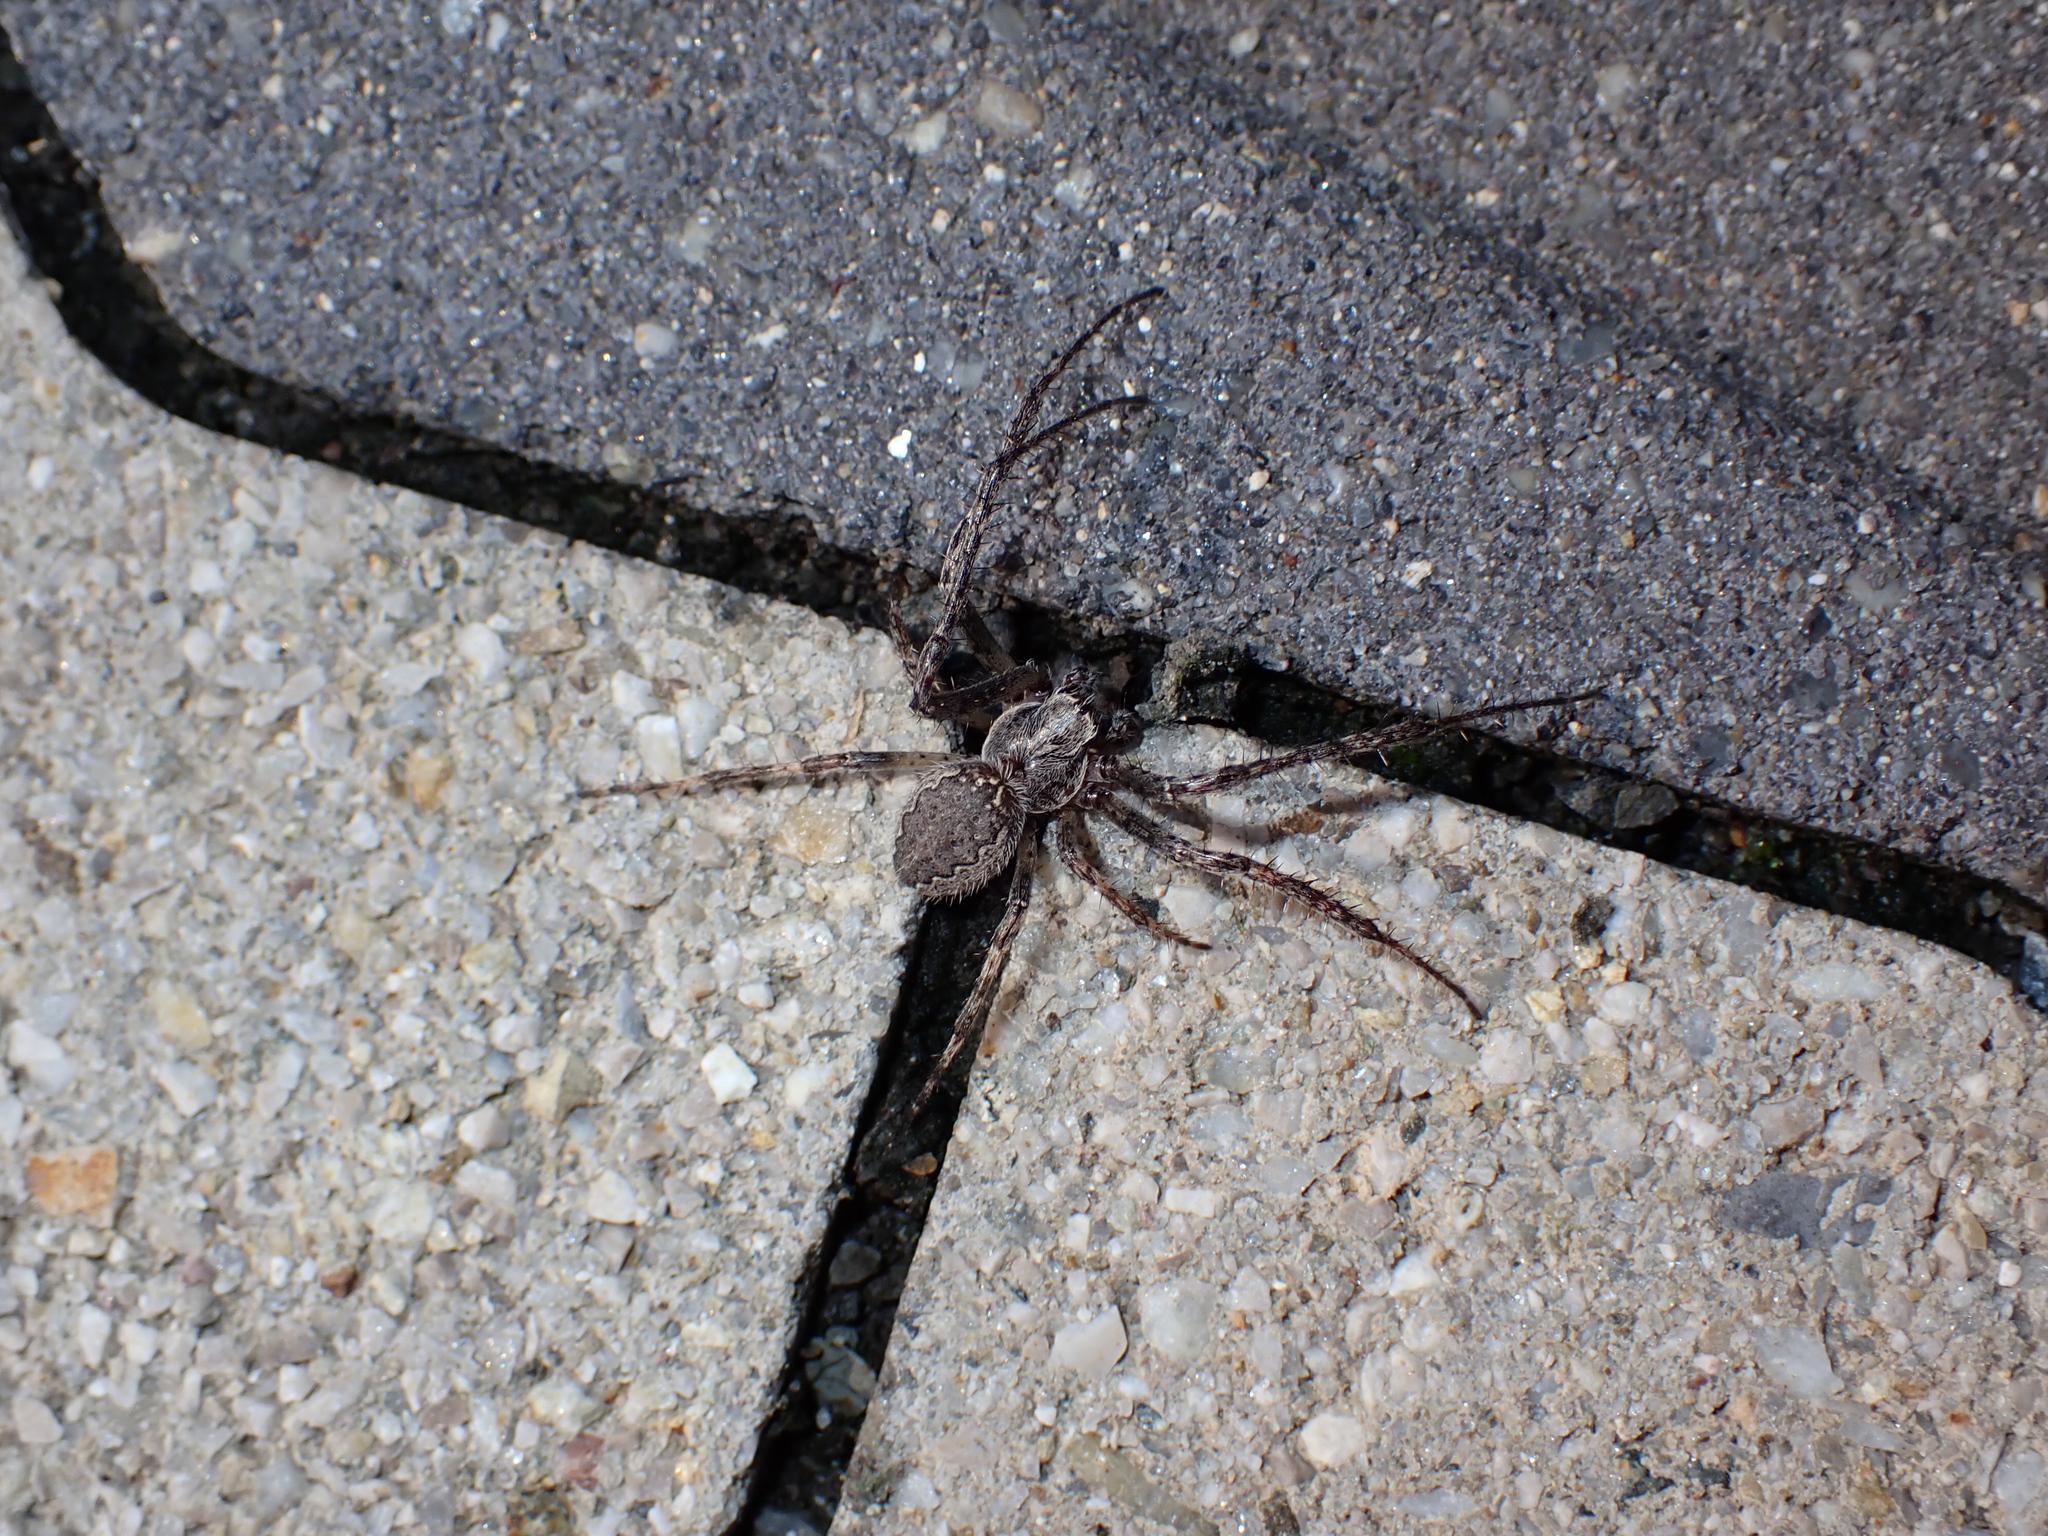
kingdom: Animalia
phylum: Arthropoda
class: Arachnida
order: Araneae
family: Araneidae
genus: Nuctenea
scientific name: Nuctenea umbratica
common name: Toad spider
